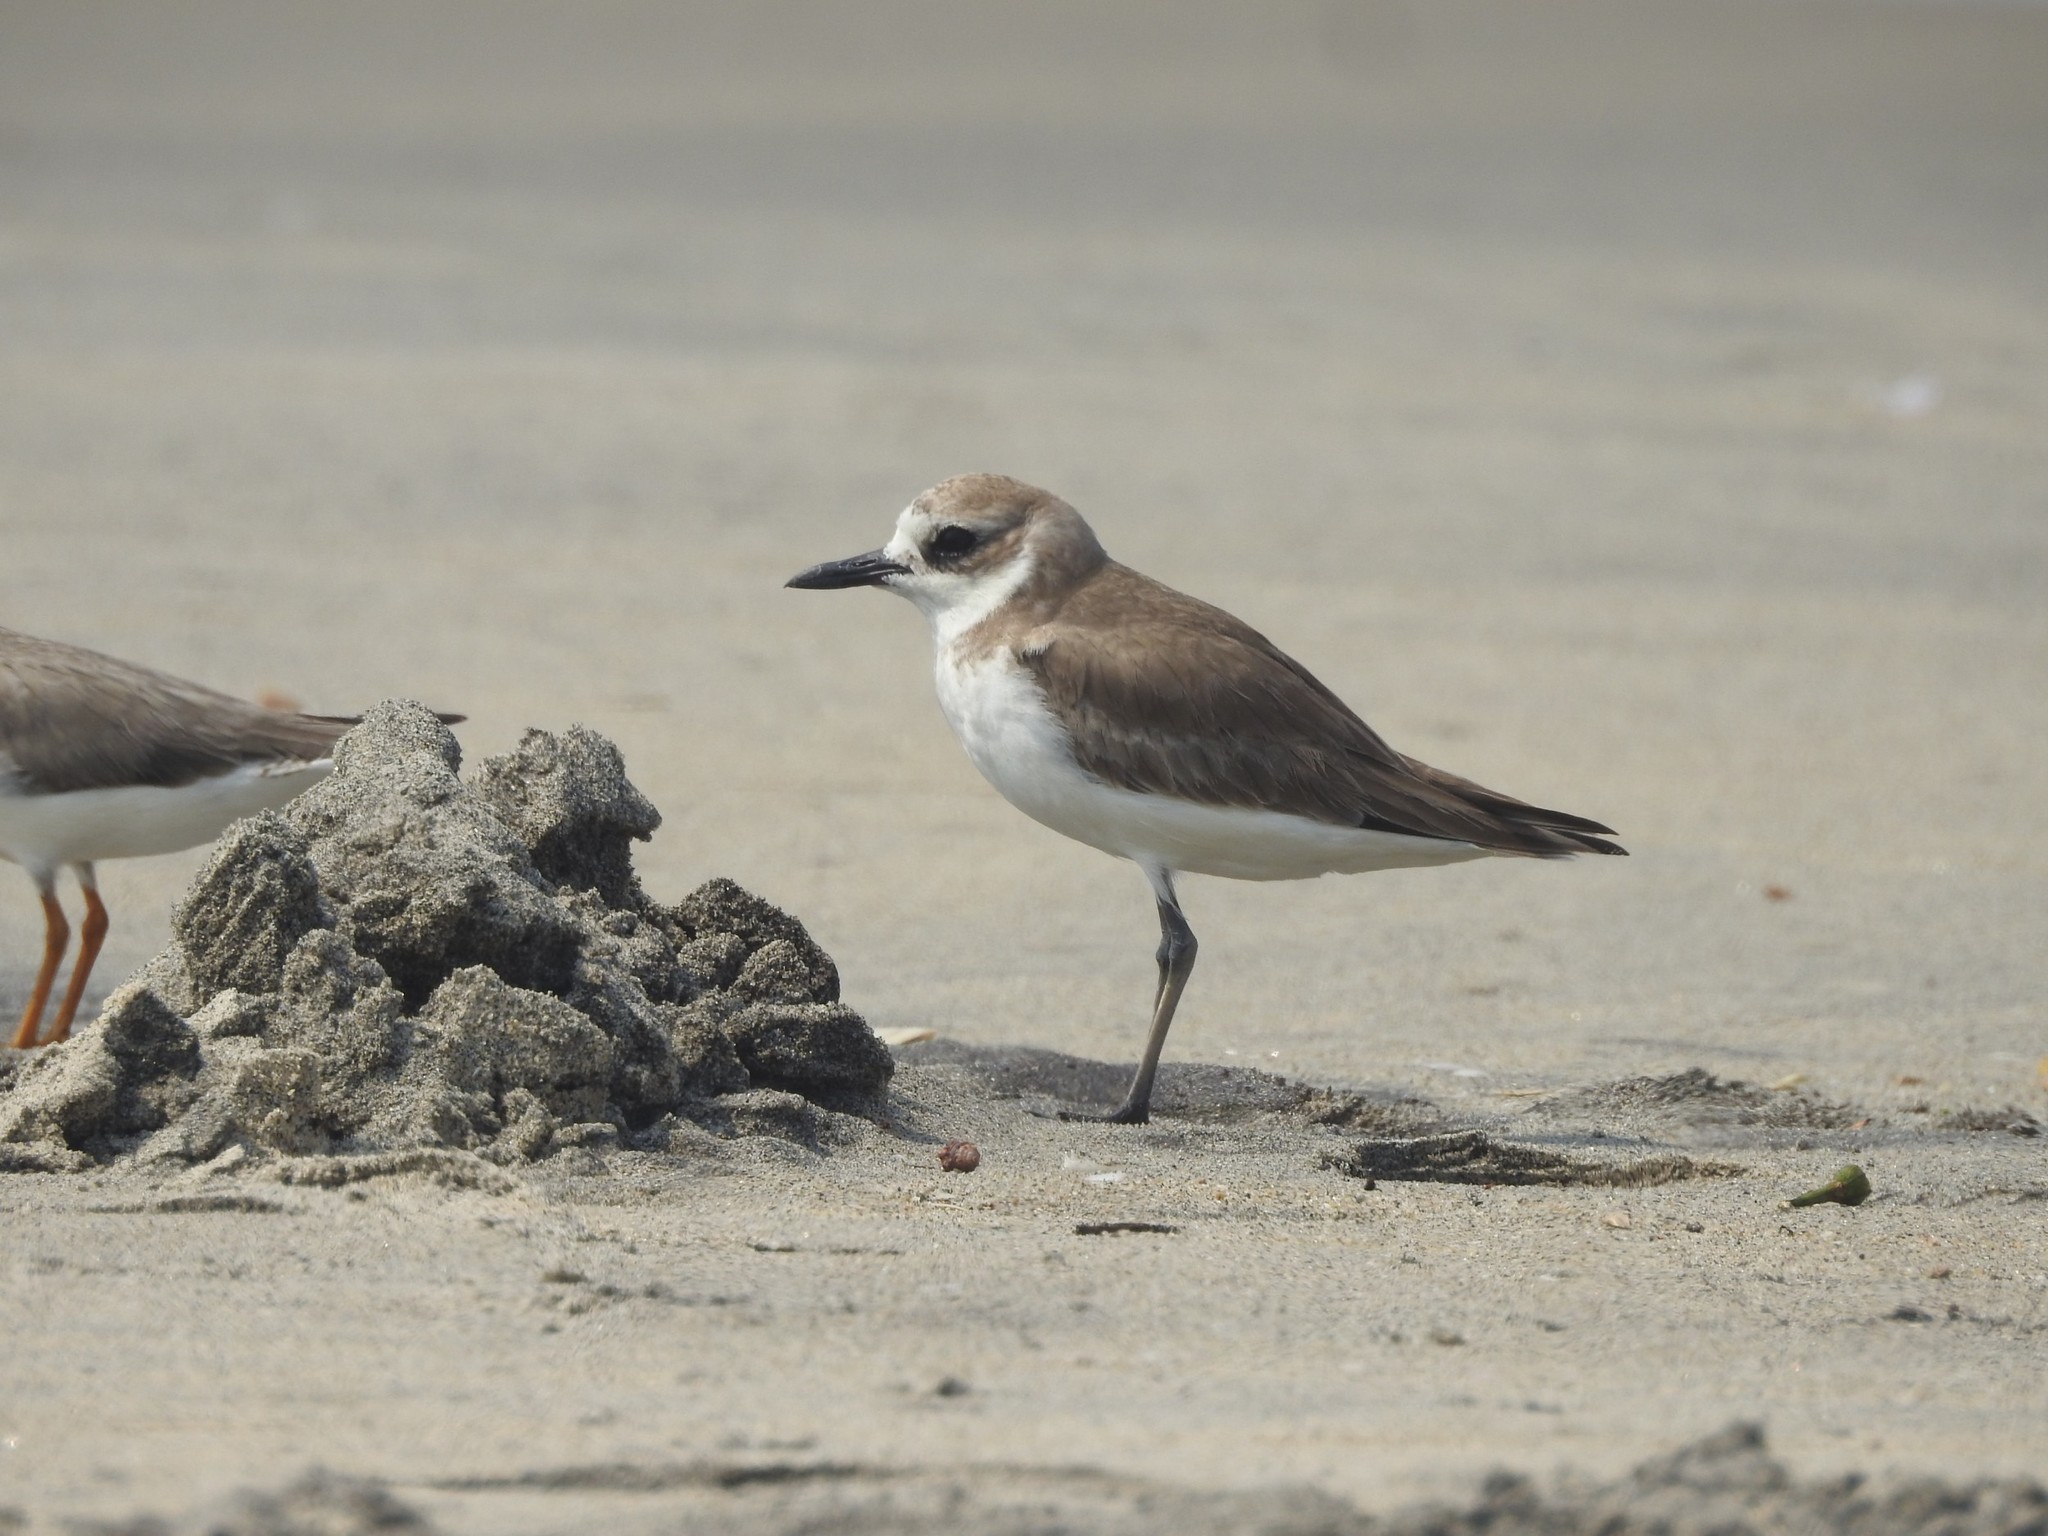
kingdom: Animalia
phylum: Chordata
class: Aves
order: Charadriiformes
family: Charadriidae
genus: Anarhynchus
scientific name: Anarhynchus
